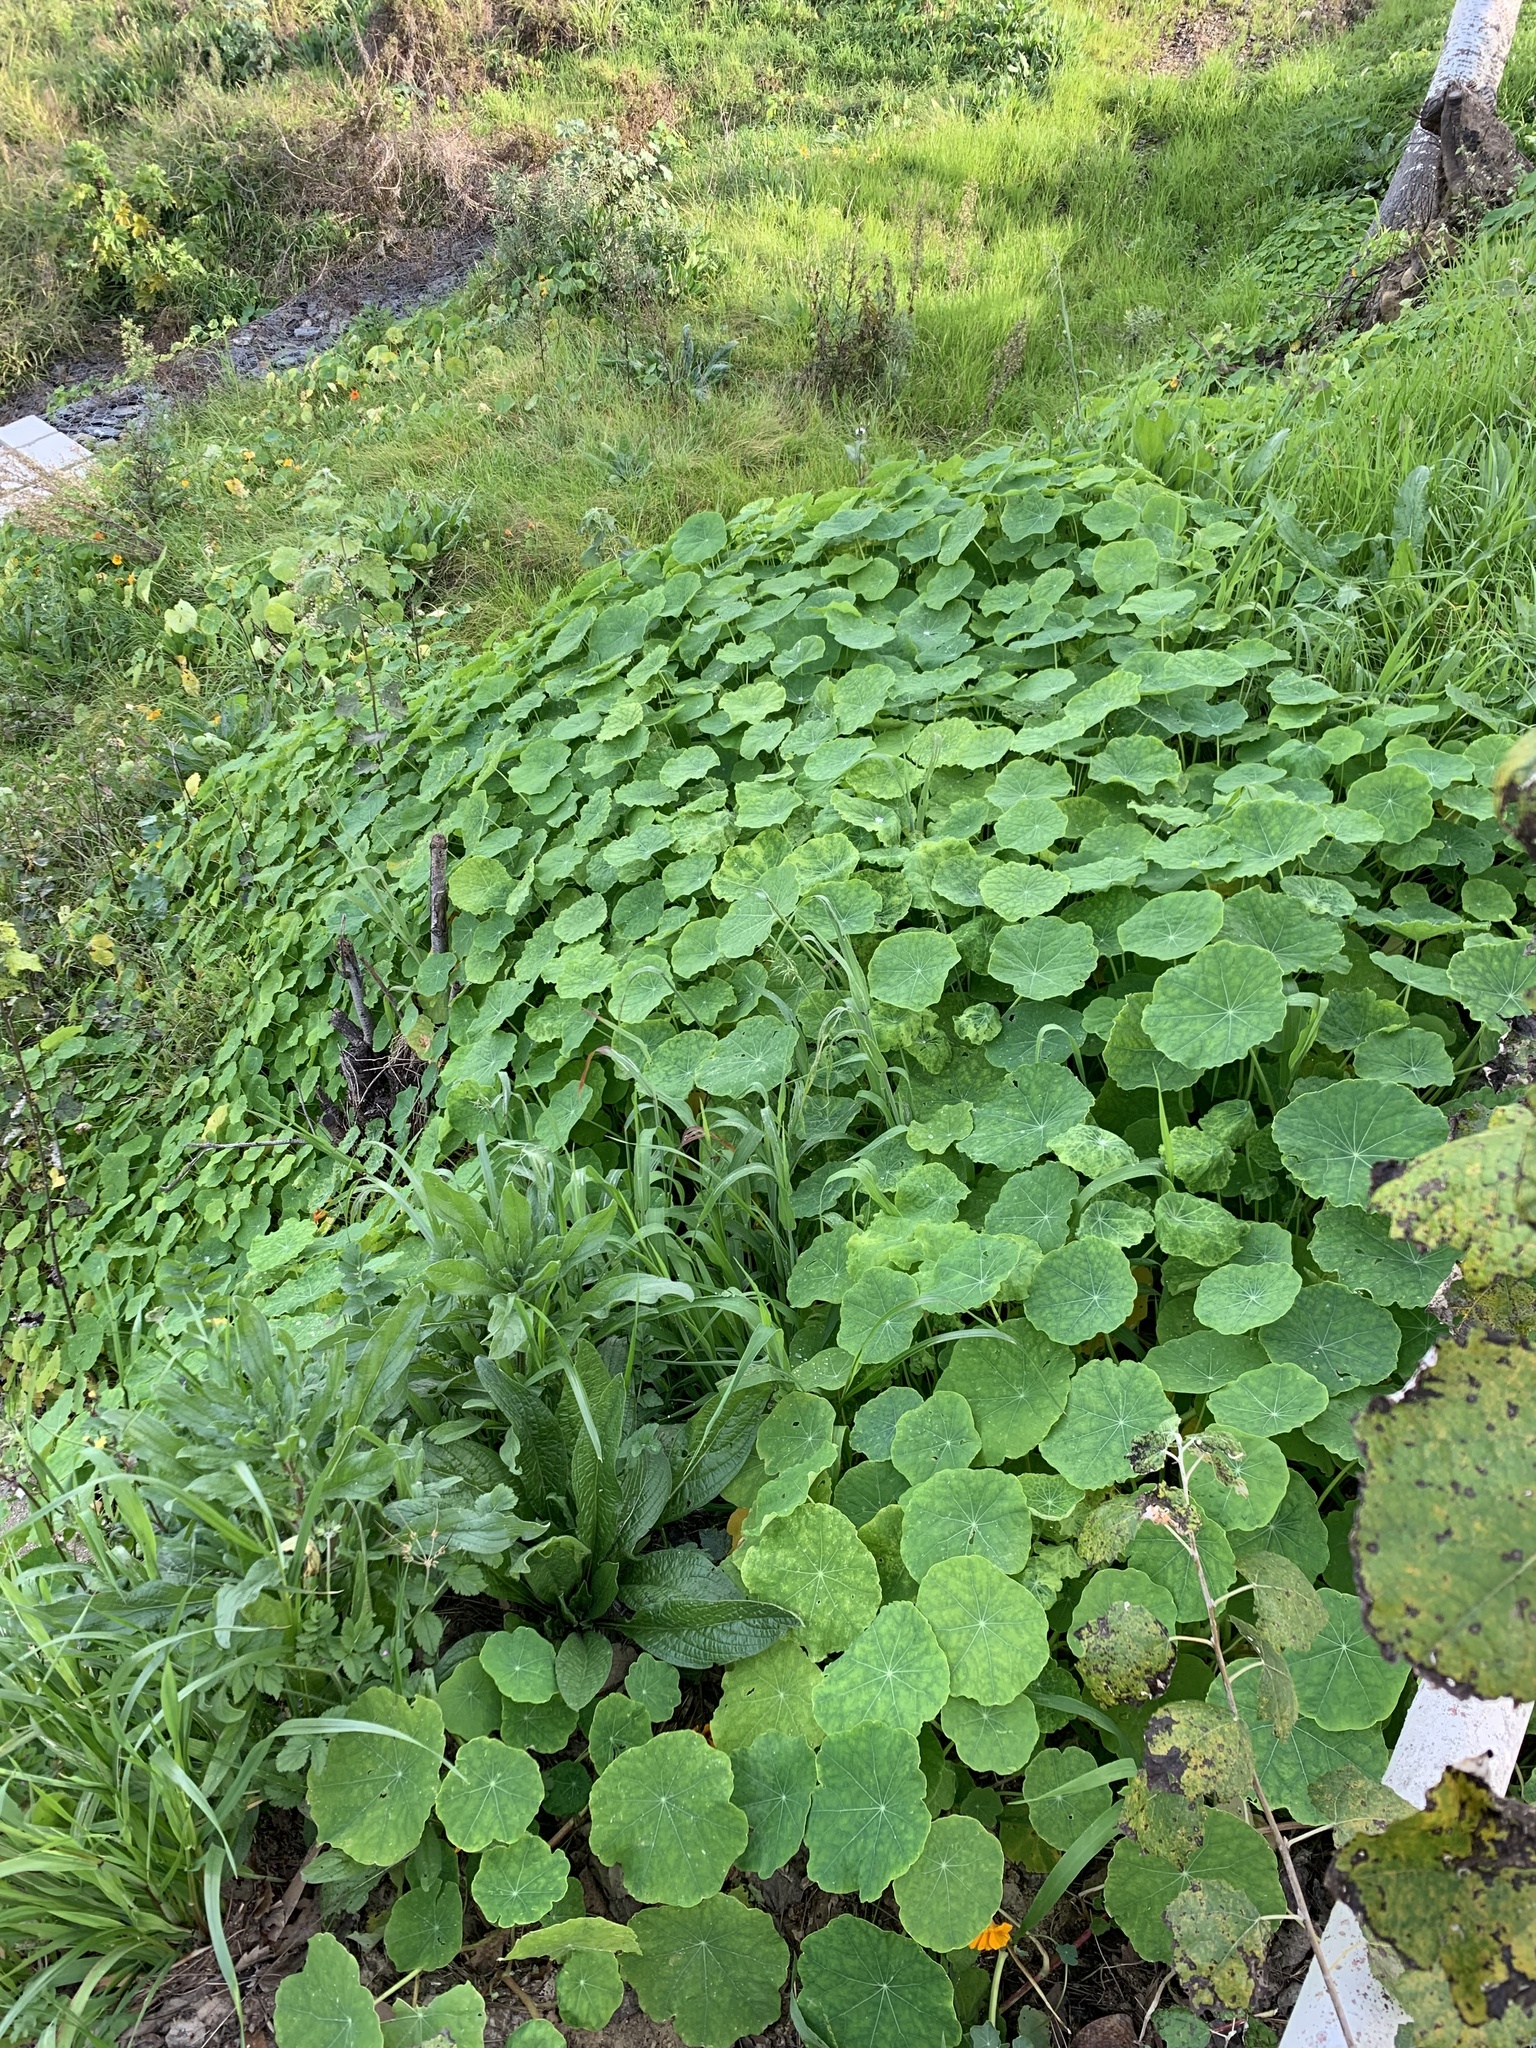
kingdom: Plantae
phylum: Tracheophyta
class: Magnoliopsida
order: Brassicales
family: Tropaeolaceae
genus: Tropaeolum
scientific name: Tropaeolum majus
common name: Nasturtium
